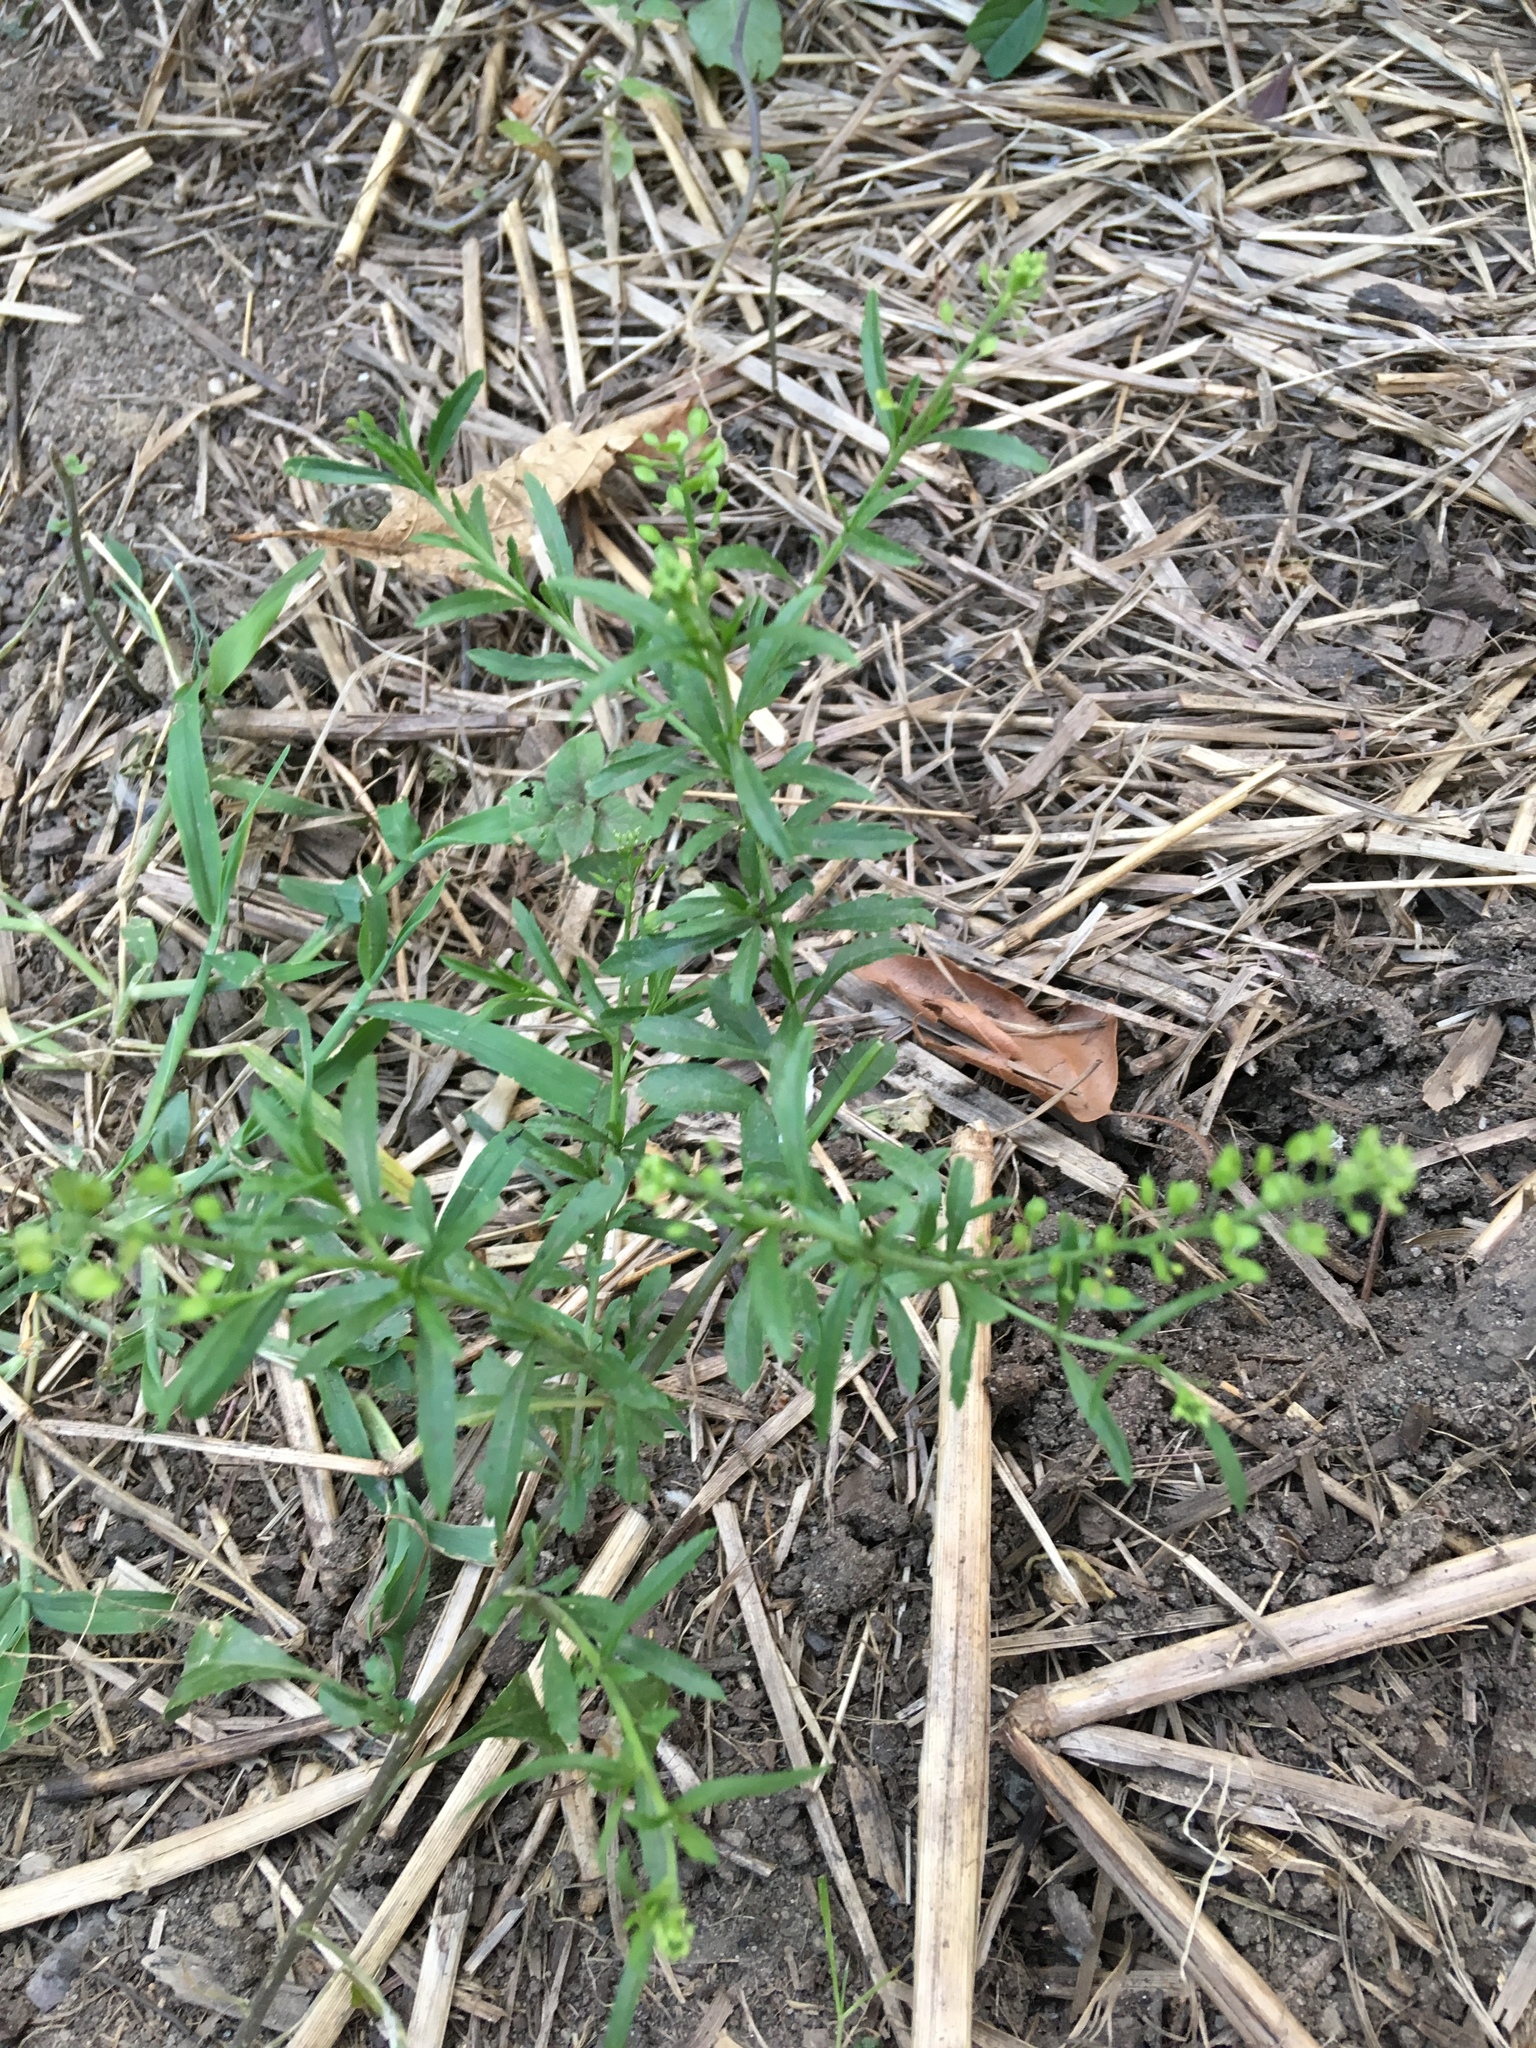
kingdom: Plantae
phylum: Tracheophyta
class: Magnoliopsida
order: Brassicales
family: Brassicaceae
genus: Lepidium
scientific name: Lepidium virginicum
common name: Least pepperwort
